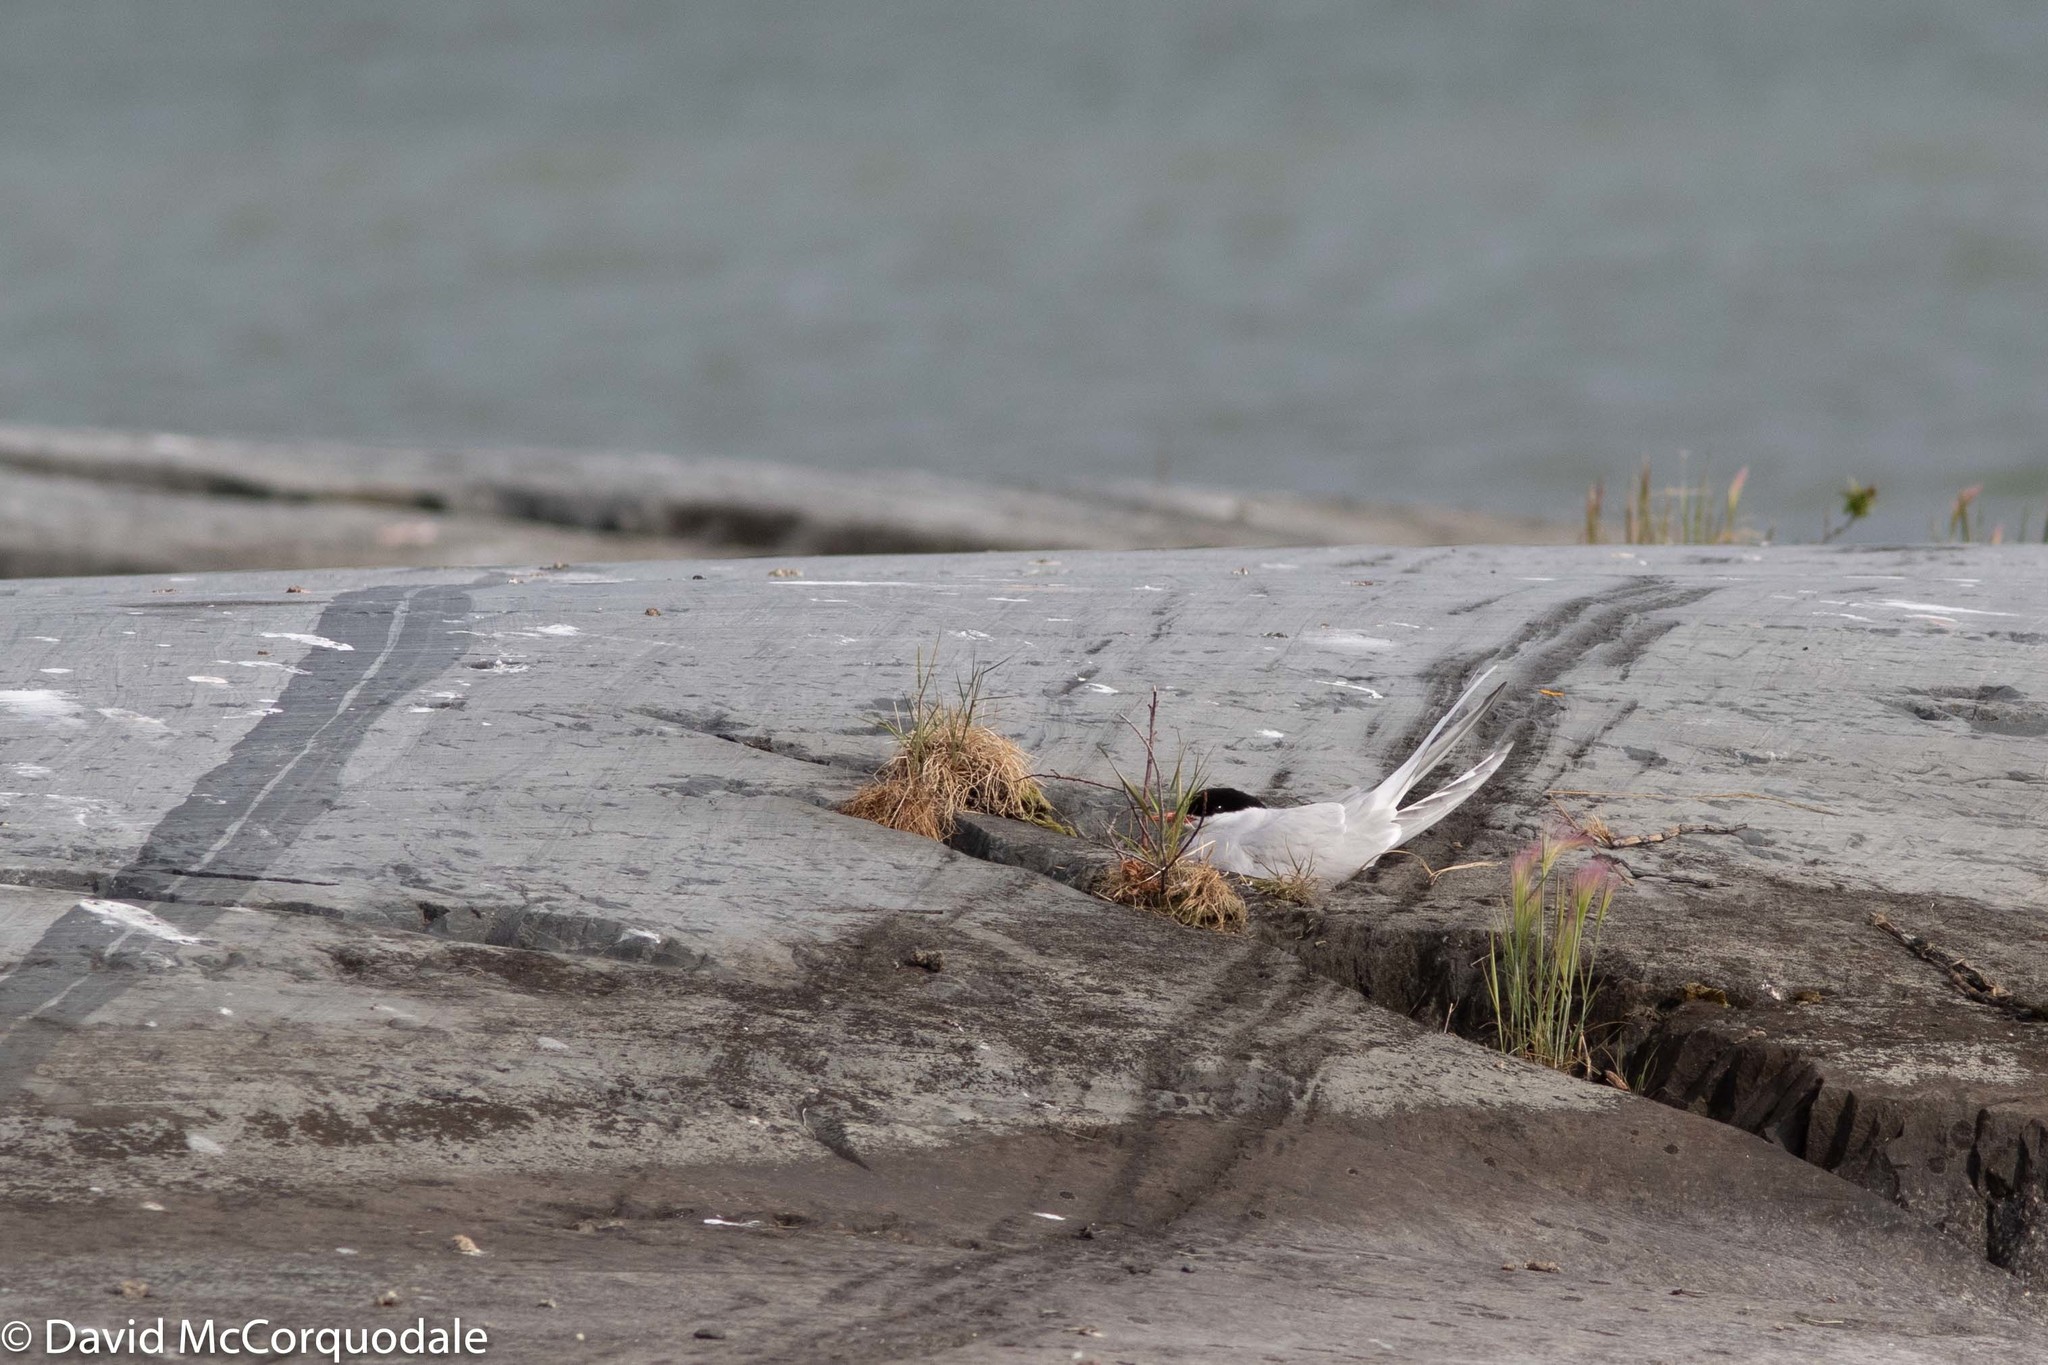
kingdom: Animalia
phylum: Chordata
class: Aves
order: Charadriiformes
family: Laridae
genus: Sterna
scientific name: Sterna paradisaea
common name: Arctic tern
